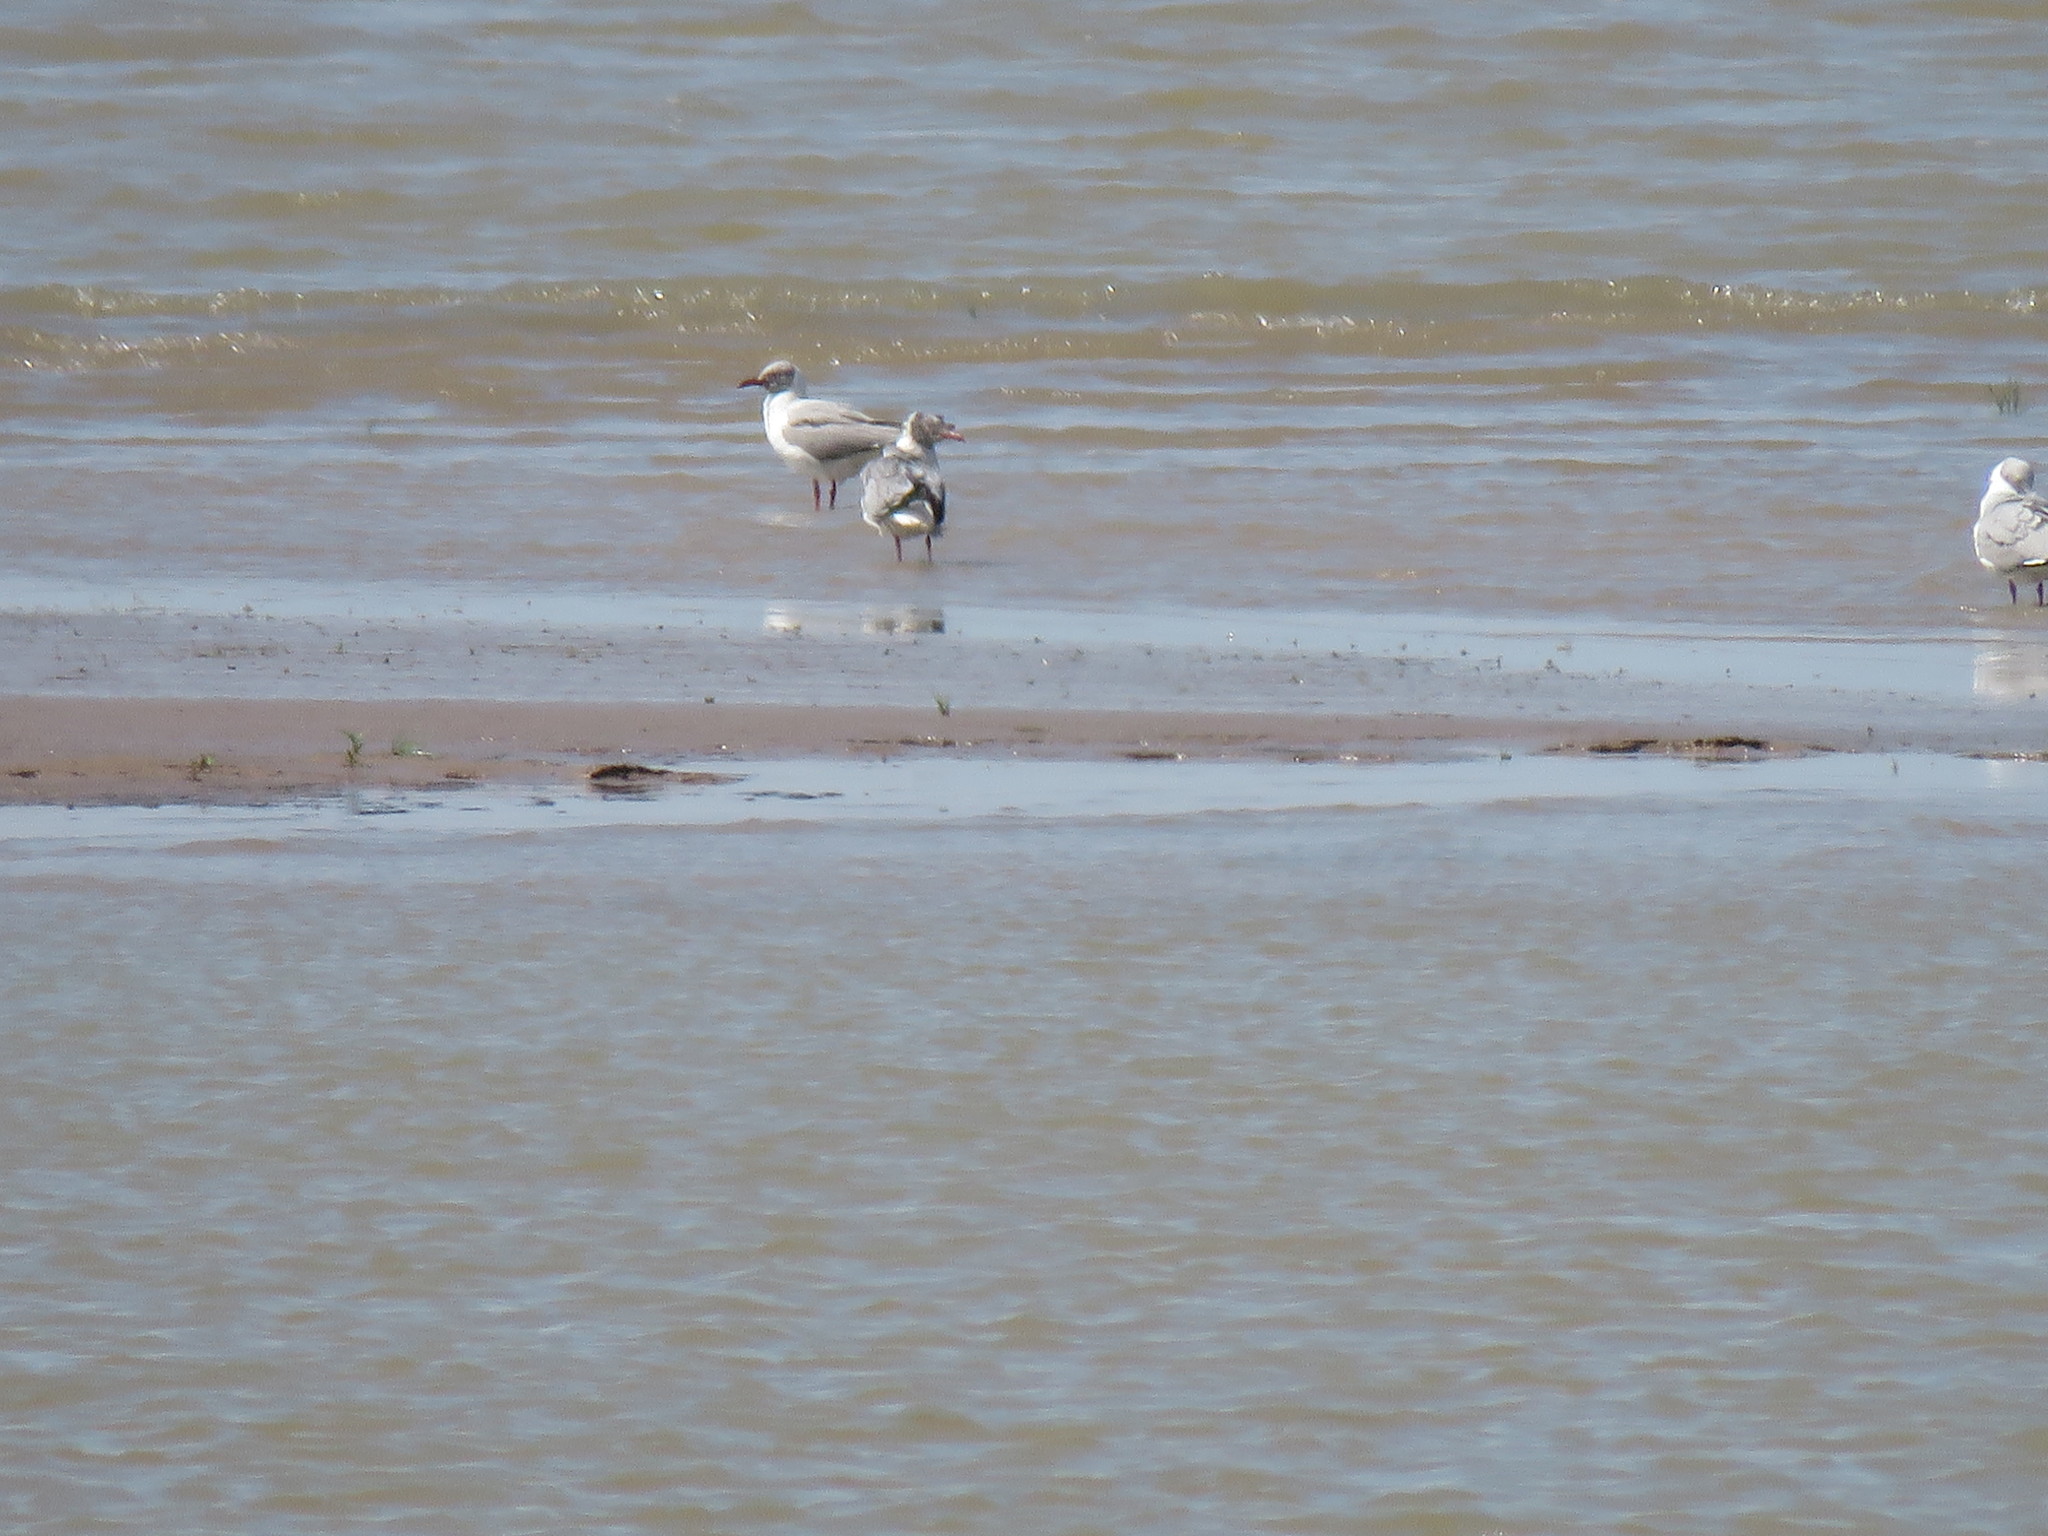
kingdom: Animalia
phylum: Chordata
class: Aves
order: Charadriiformes
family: Laridae
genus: Chroicocephalus
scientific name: Chroicocephalus cirrocephalus
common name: Grey-headed gull
